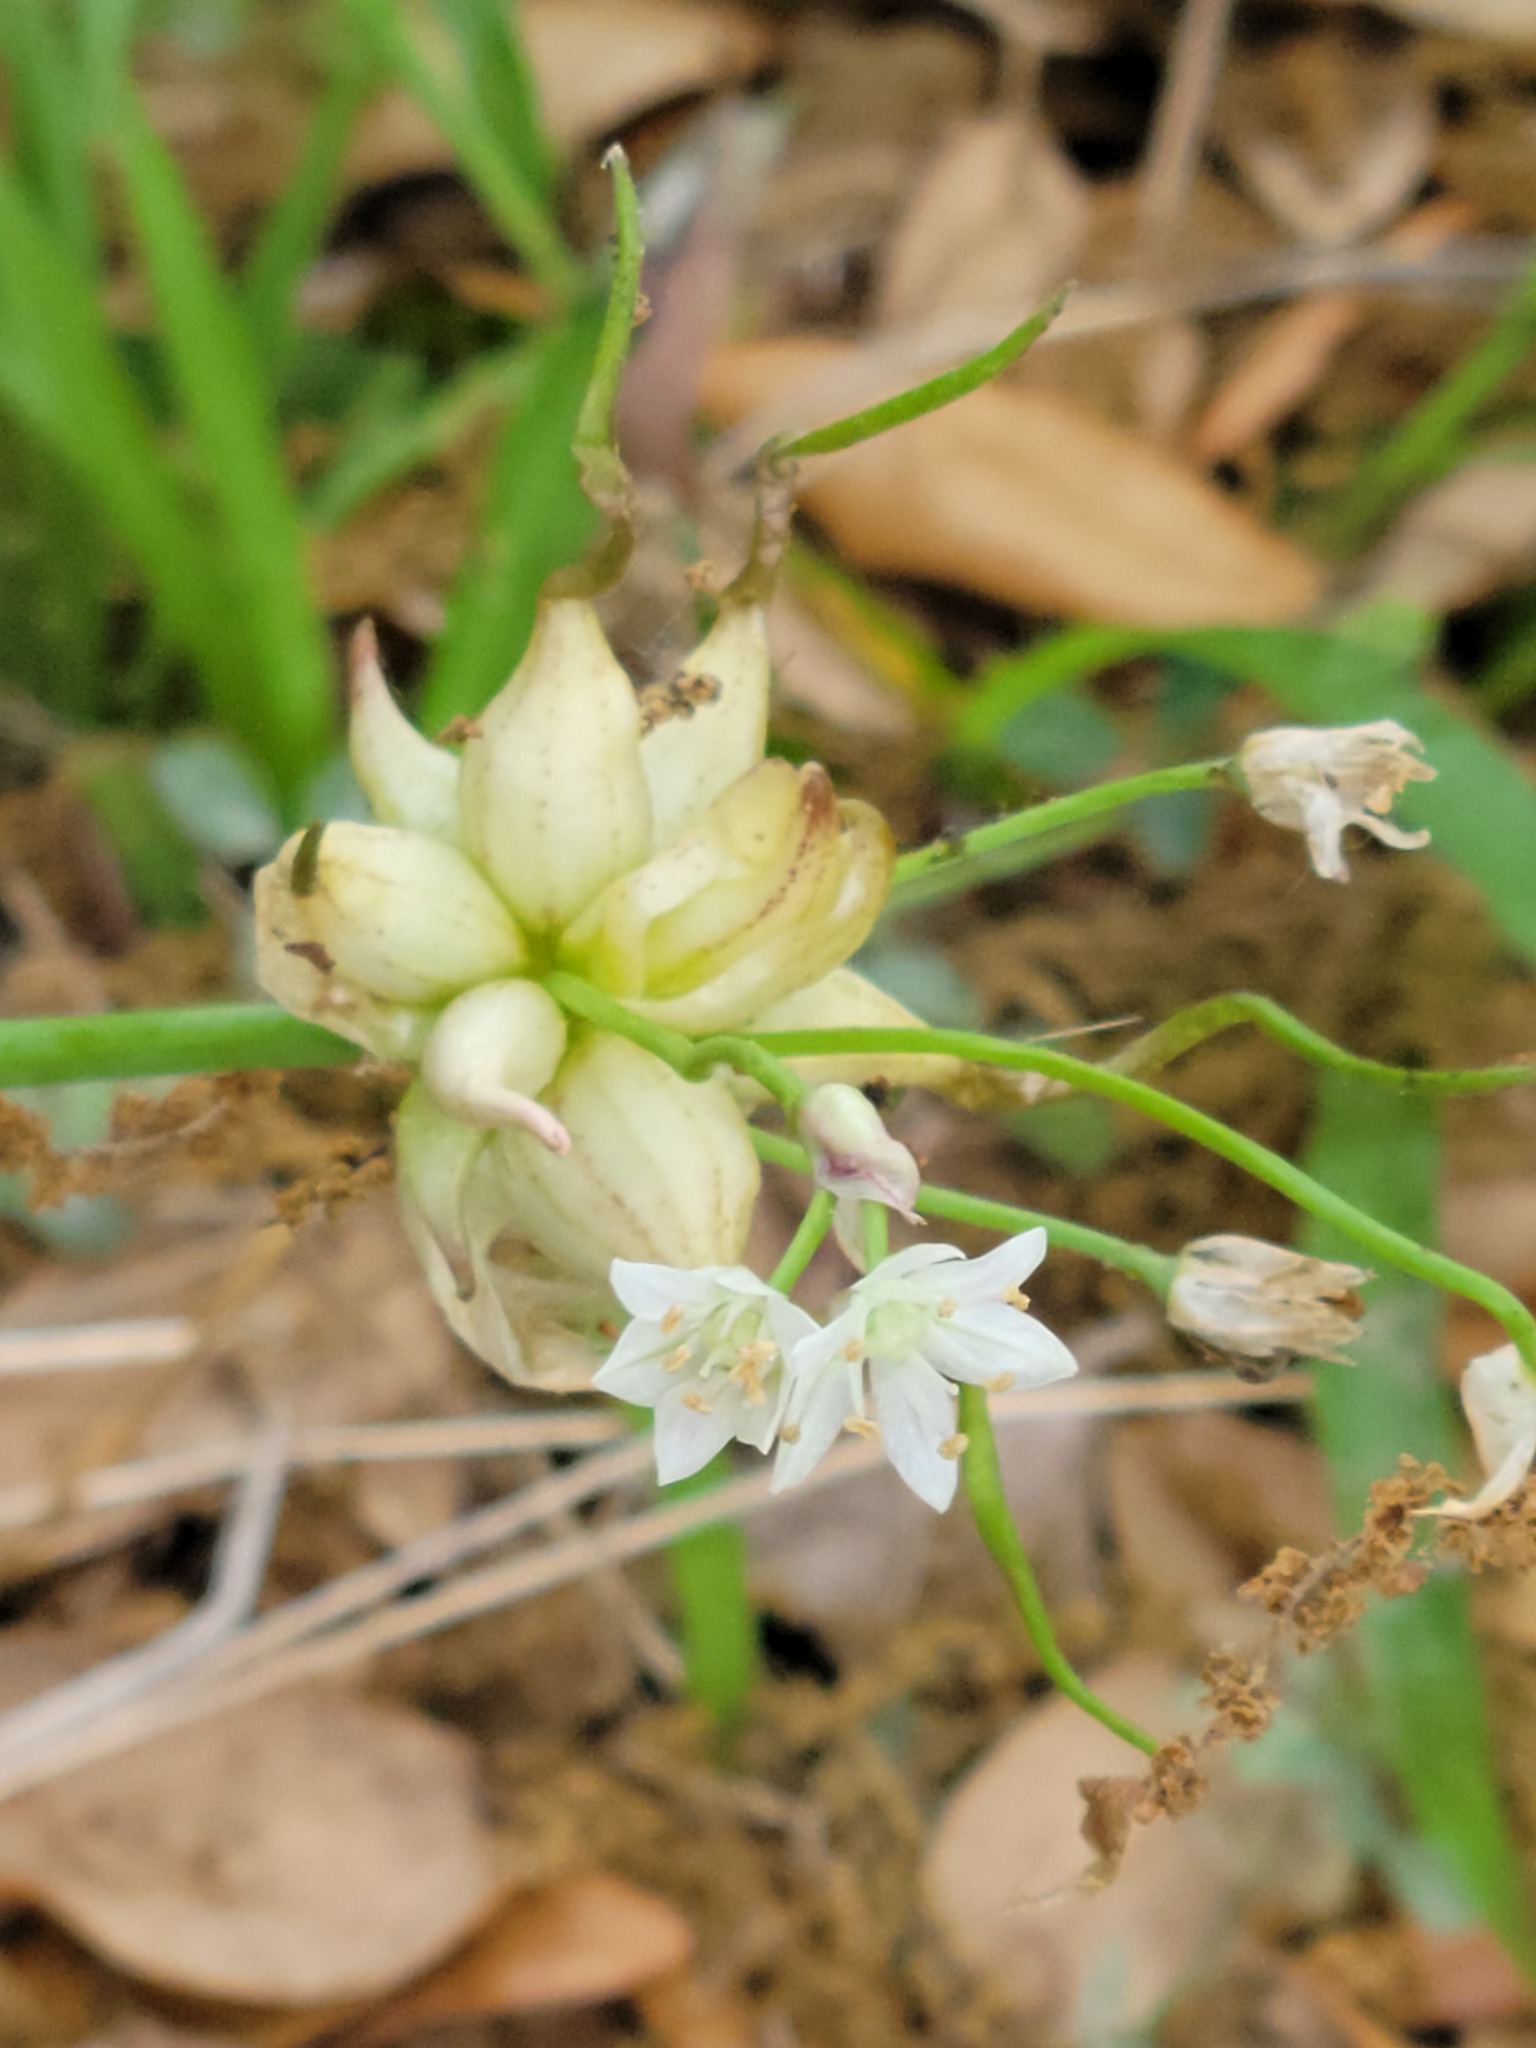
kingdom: Plantae
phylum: Tracheophyta
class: Liliopsida
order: Asparagales
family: Amaryllidaceae
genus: Allium
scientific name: Allium canadense
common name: Meadow garlic
